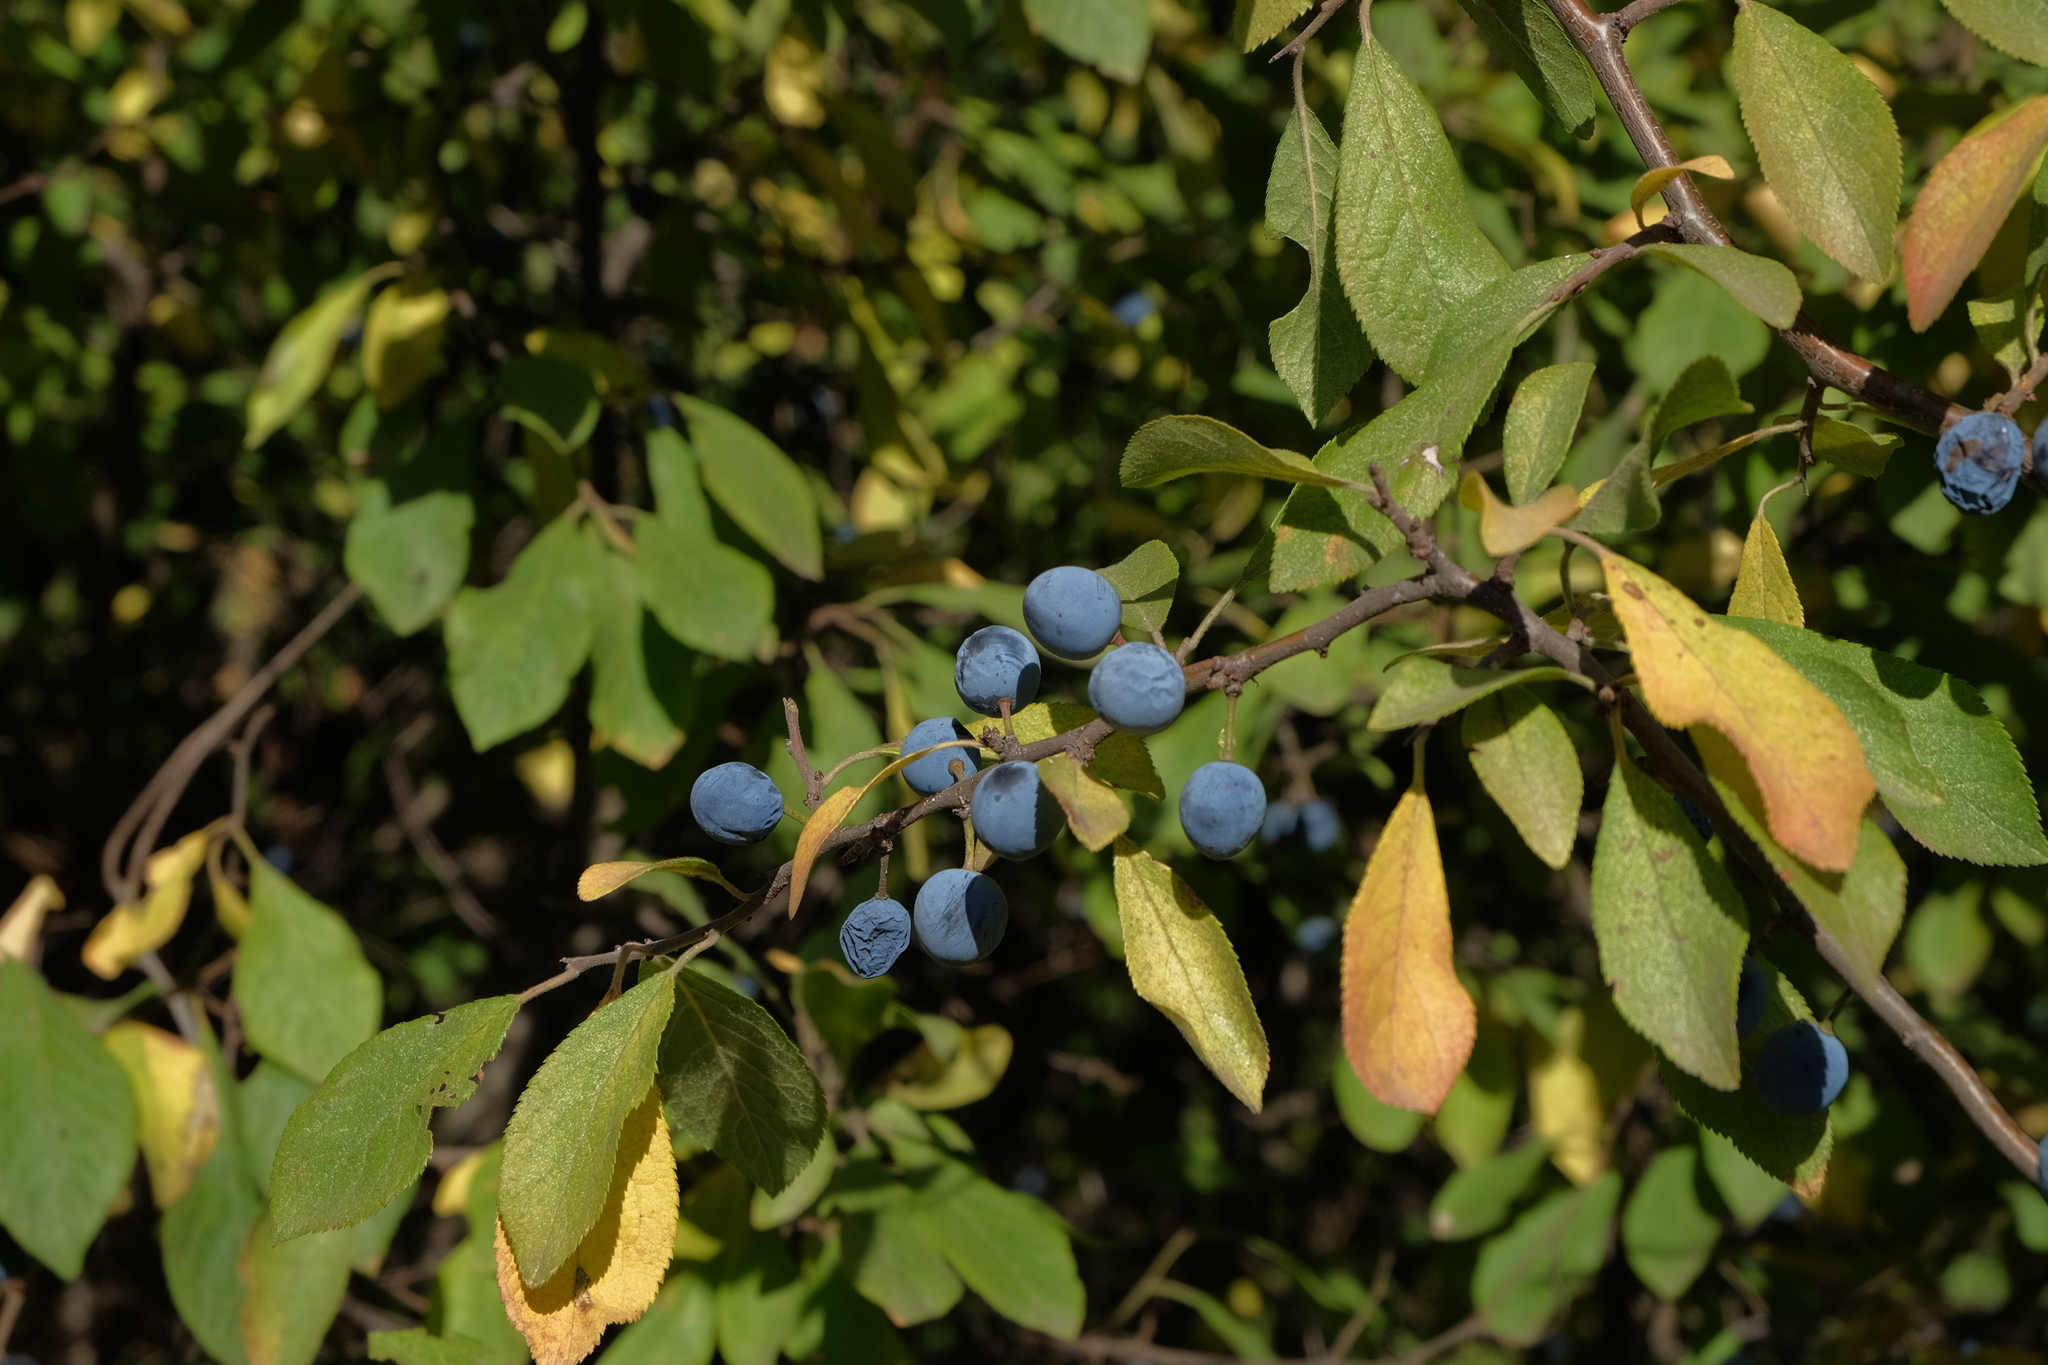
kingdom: Plantae
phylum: Tracheophyta
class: Magnoliopsida
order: Rosales
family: Rosaceae
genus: Prunus
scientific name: Prunus spinosa
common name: Blackthorn
